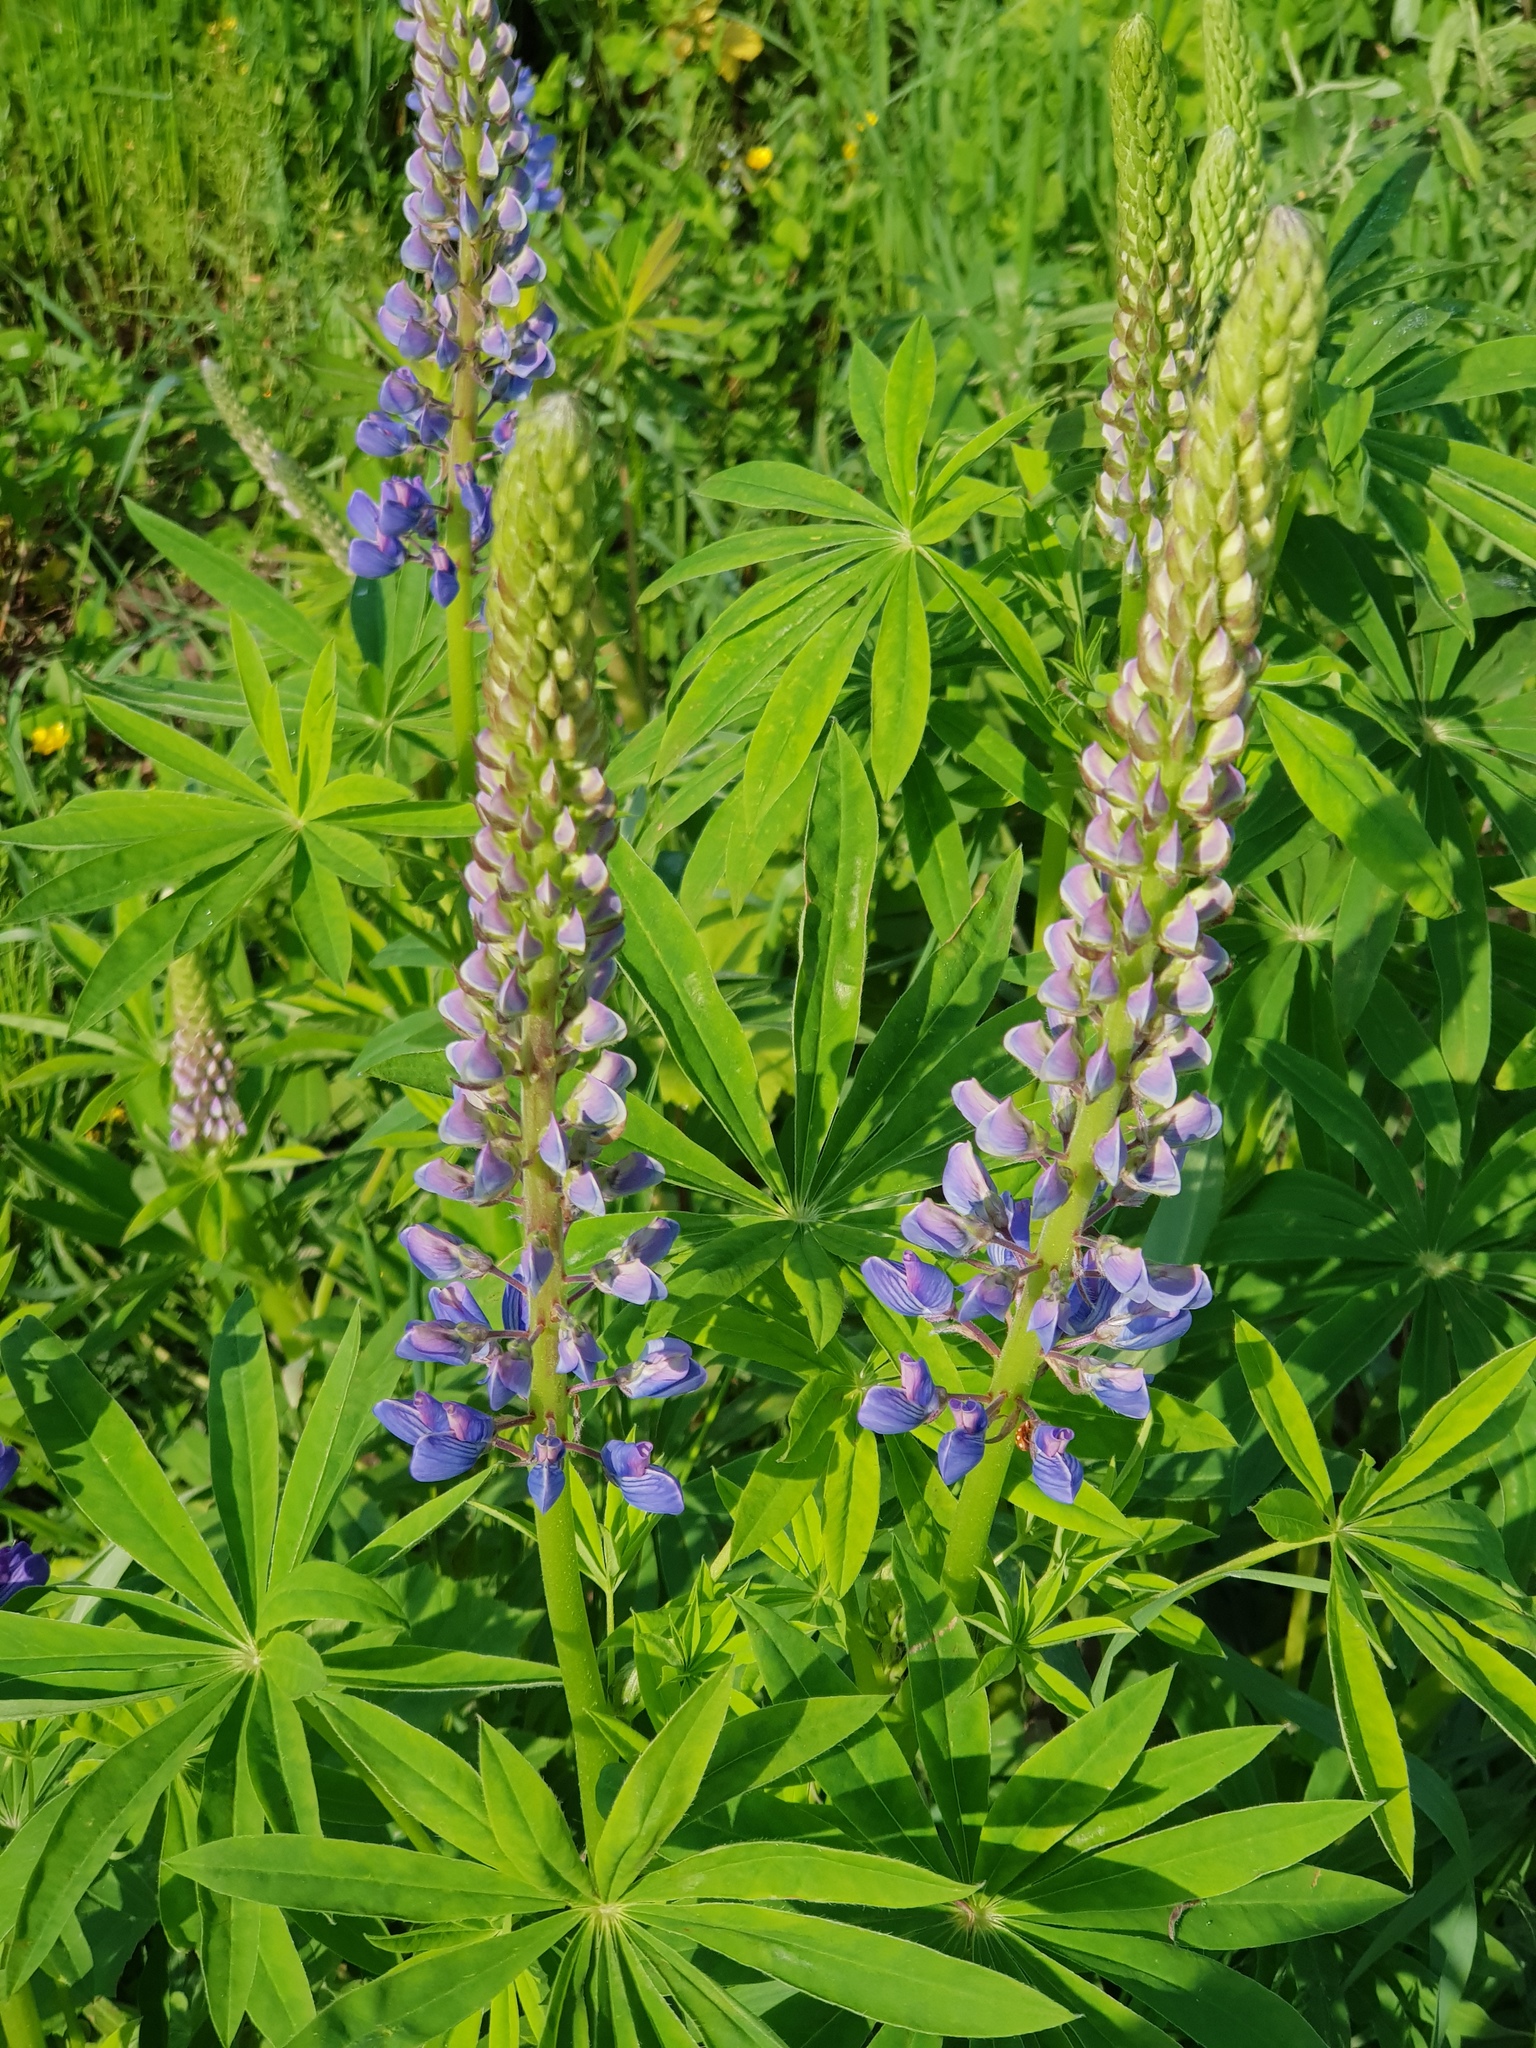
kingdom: Plantae
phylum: Tracheophyta
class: Magnoliopsida
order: Fabales
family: Fabaceae
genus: Lupinus
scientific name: Lupinus polyphyllus
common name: Garden lupin
